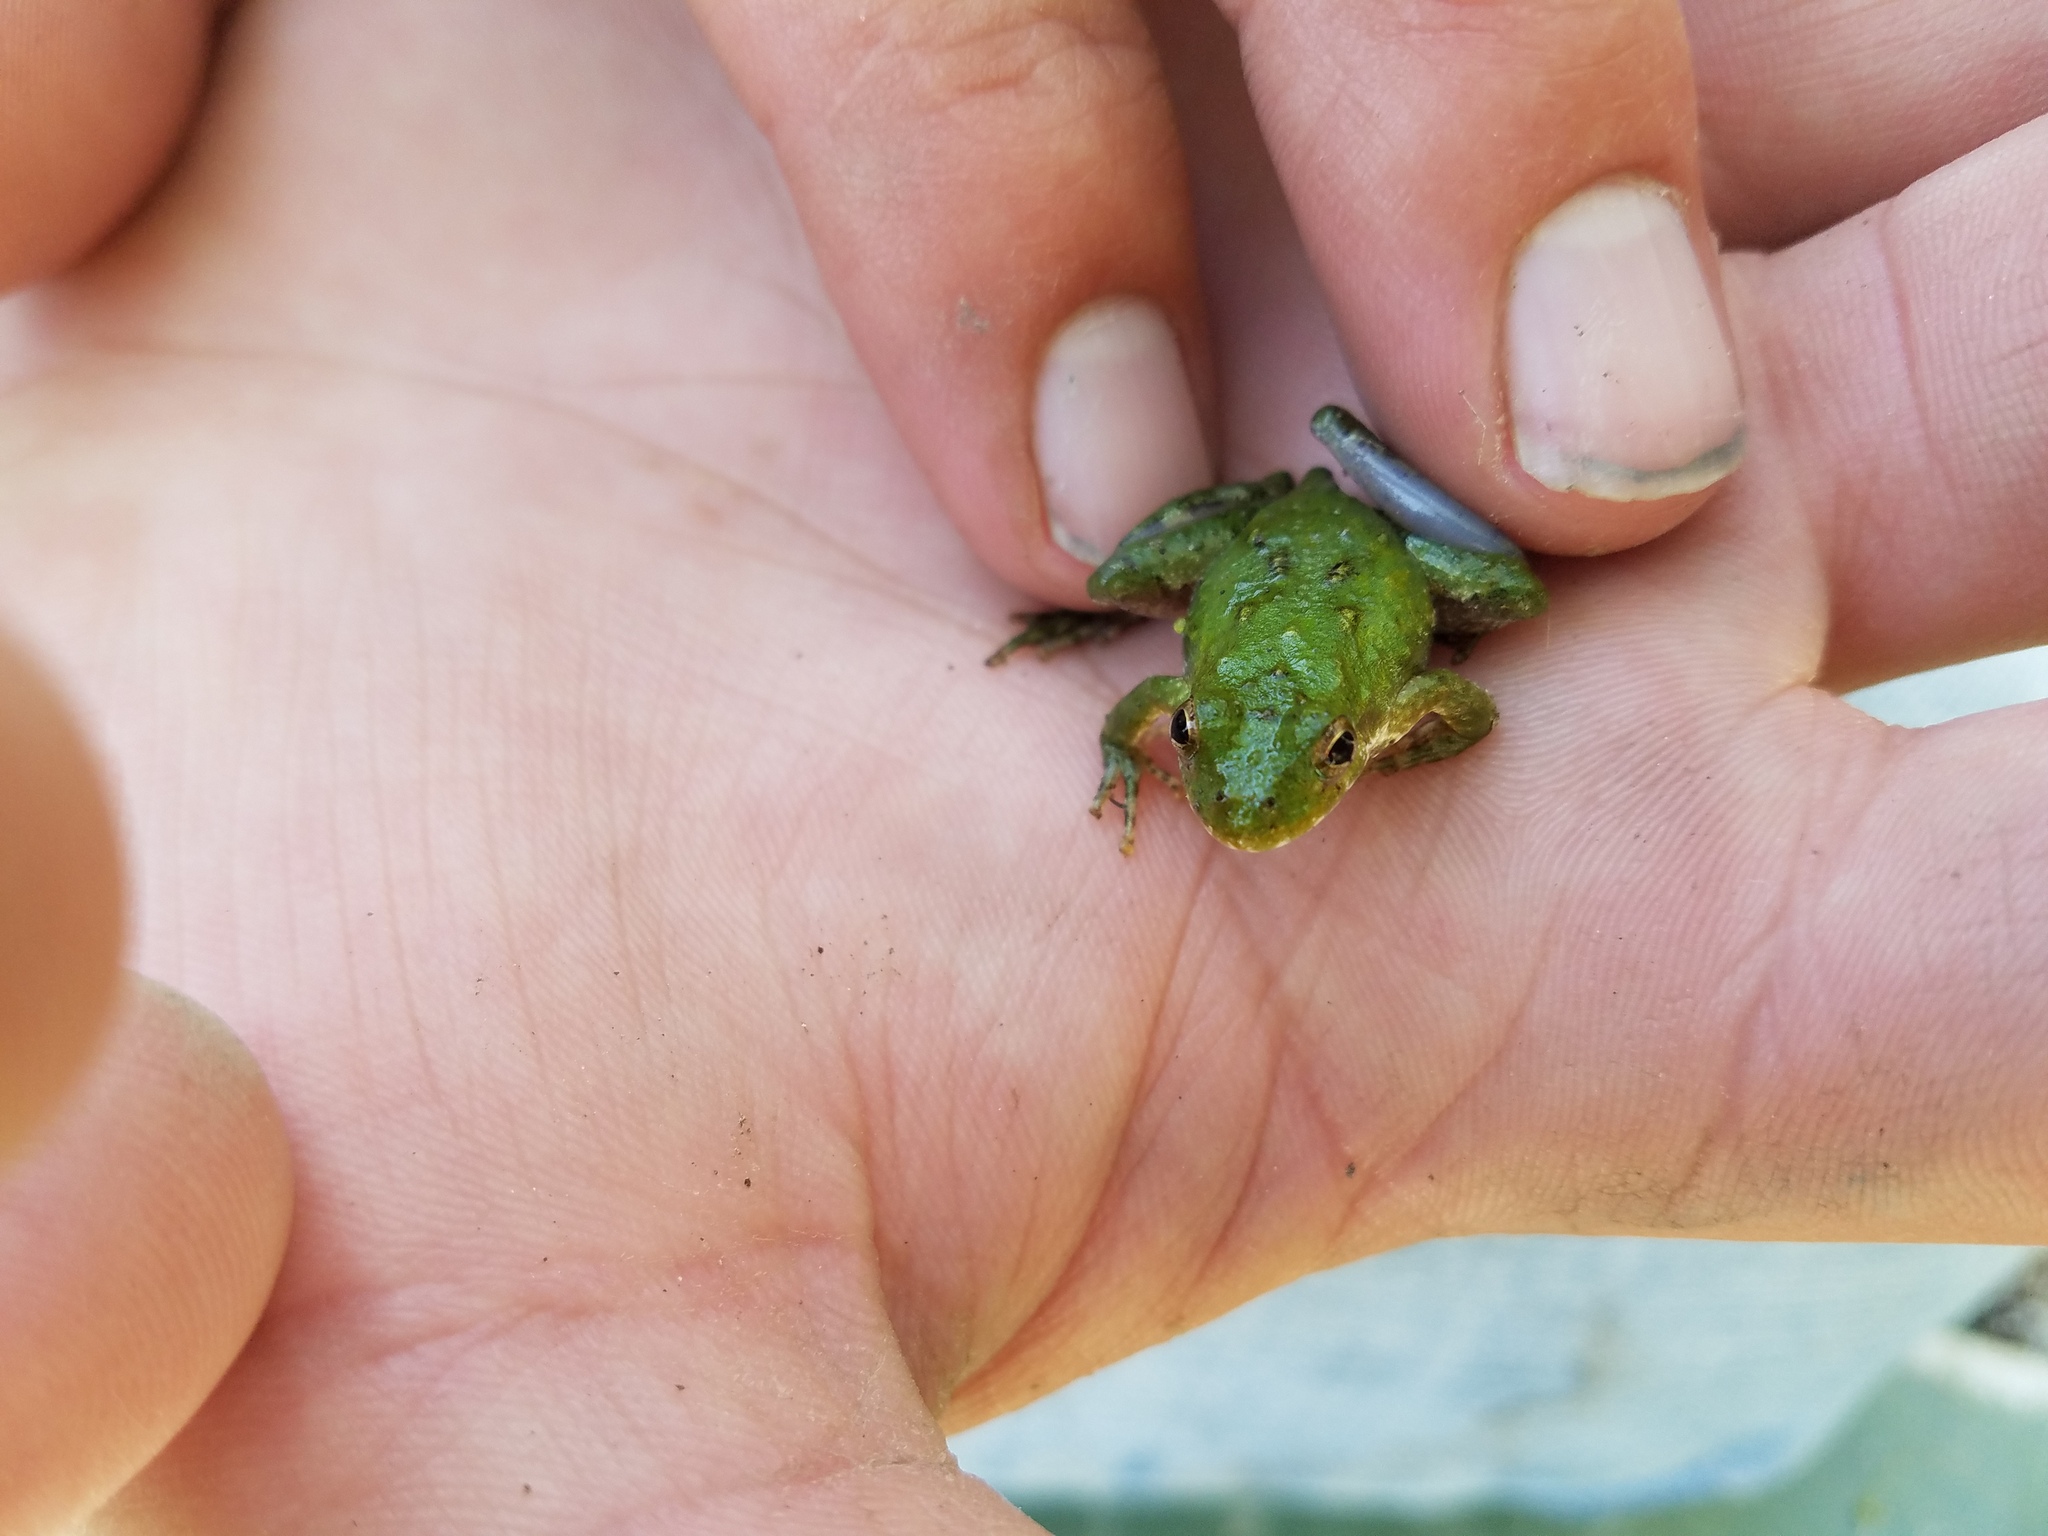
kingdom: Animalia
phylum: Chordata
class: Amphibia
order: Anura
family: Hylidae
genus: Acris
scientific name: Acris blanchardi
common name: Blanchard's cricket frog
